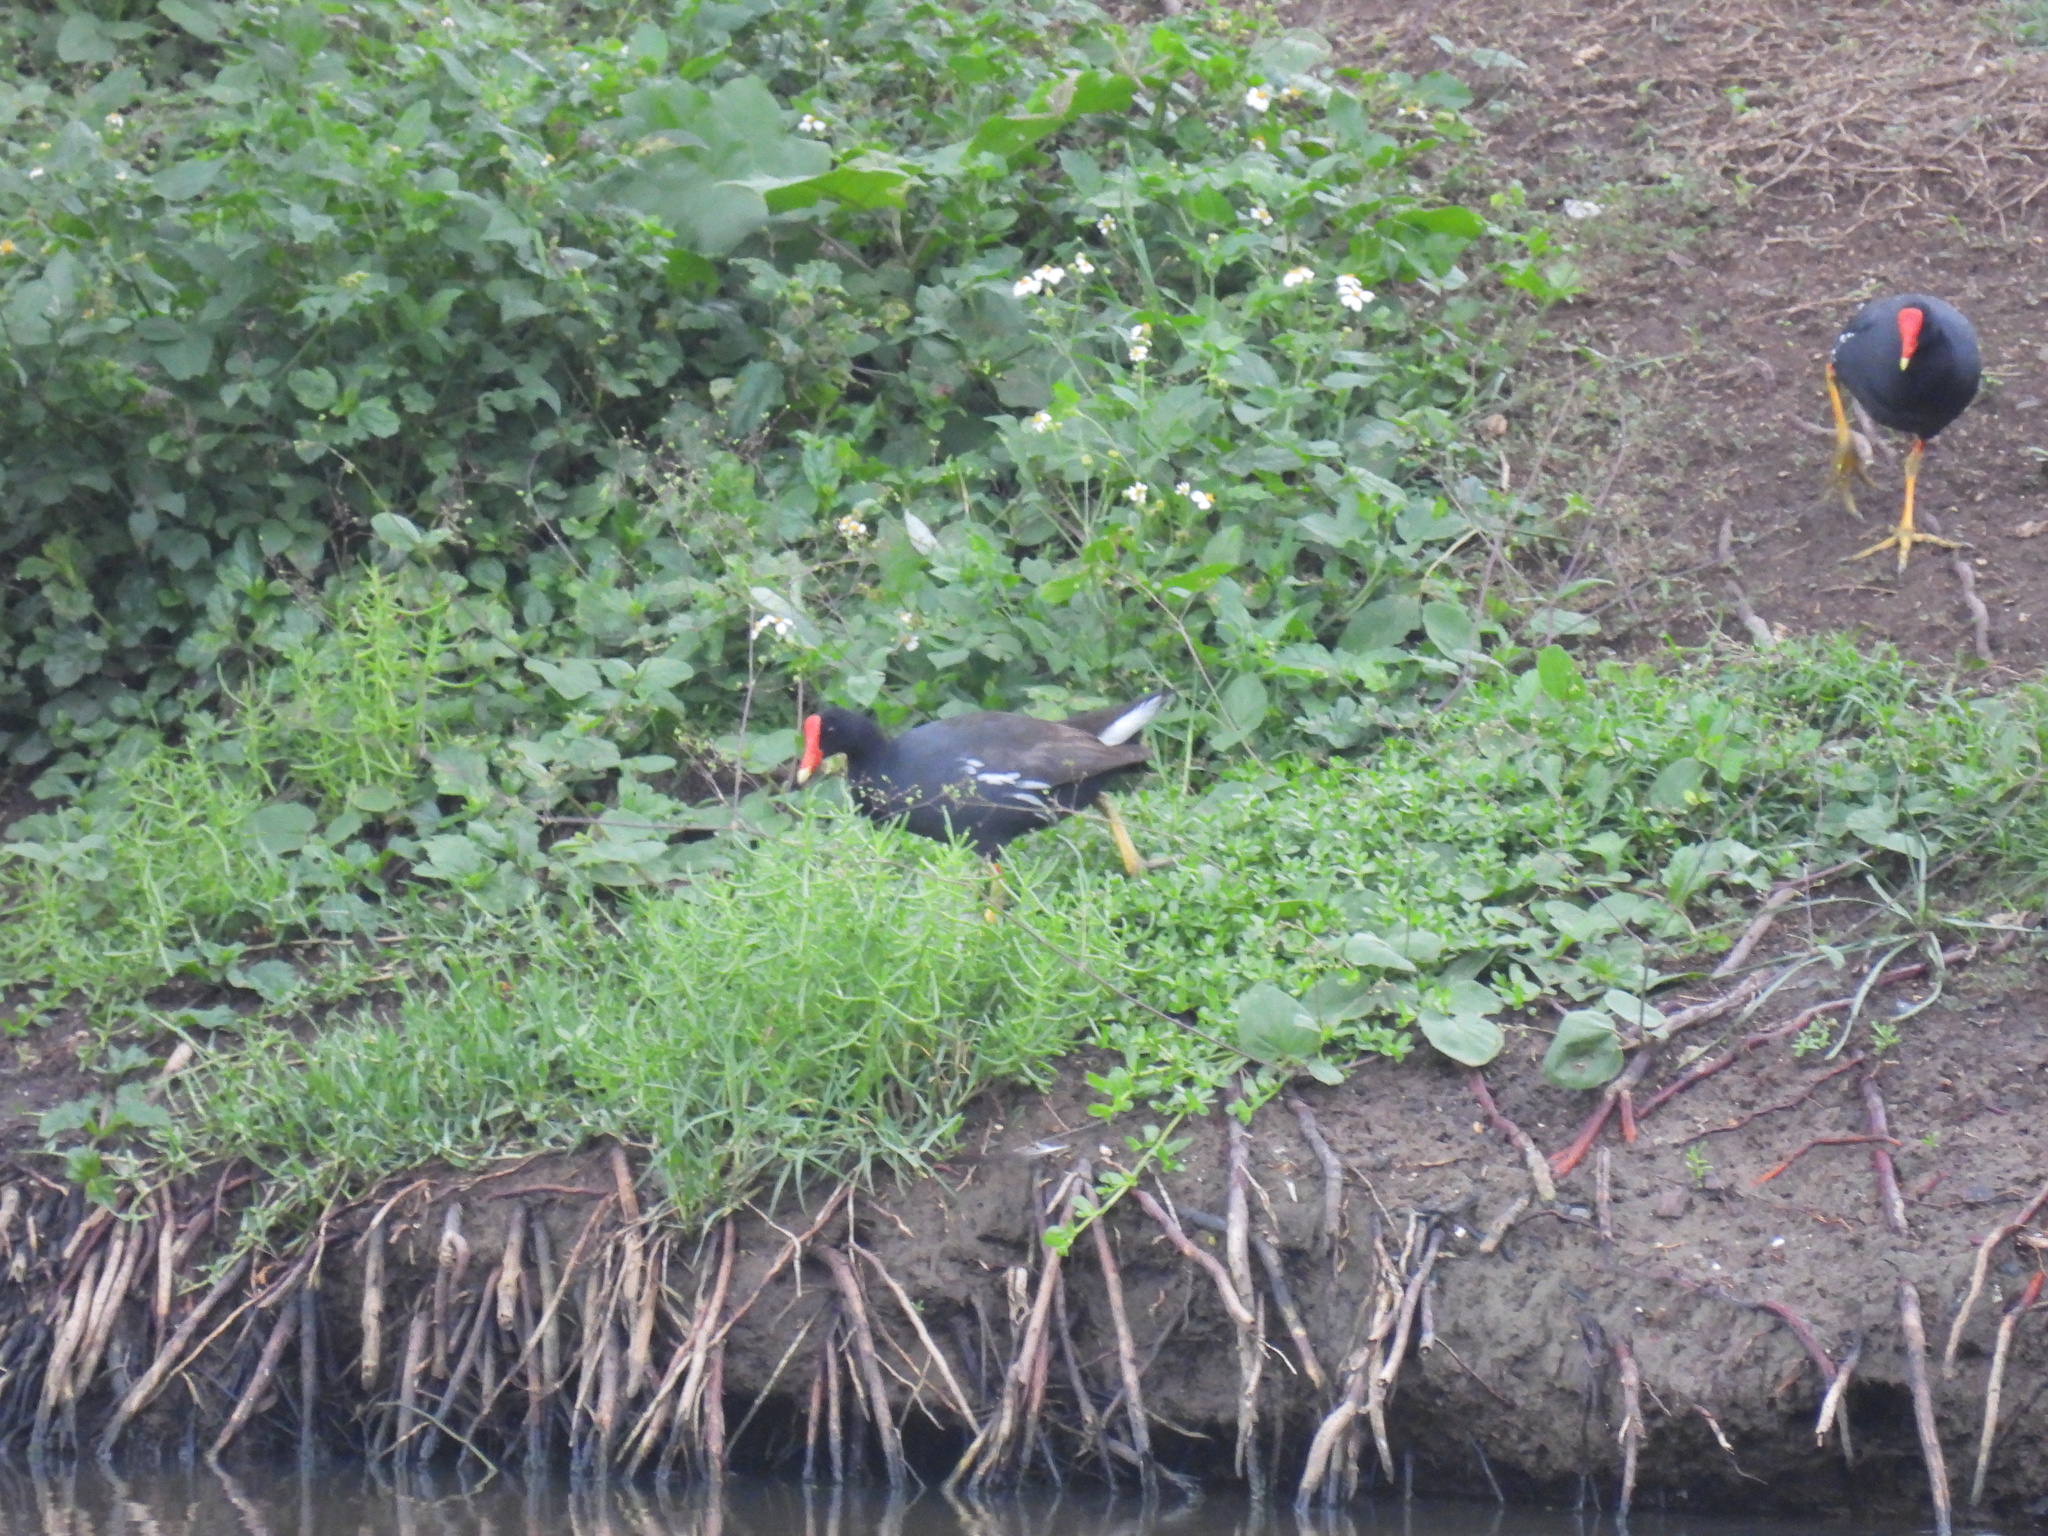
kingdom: Animalia
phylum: Chordata
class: Aves
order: Gruiformes
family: Rallidae
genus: Gallinula
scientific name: Gallinula chloropus
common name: Common moorhen
